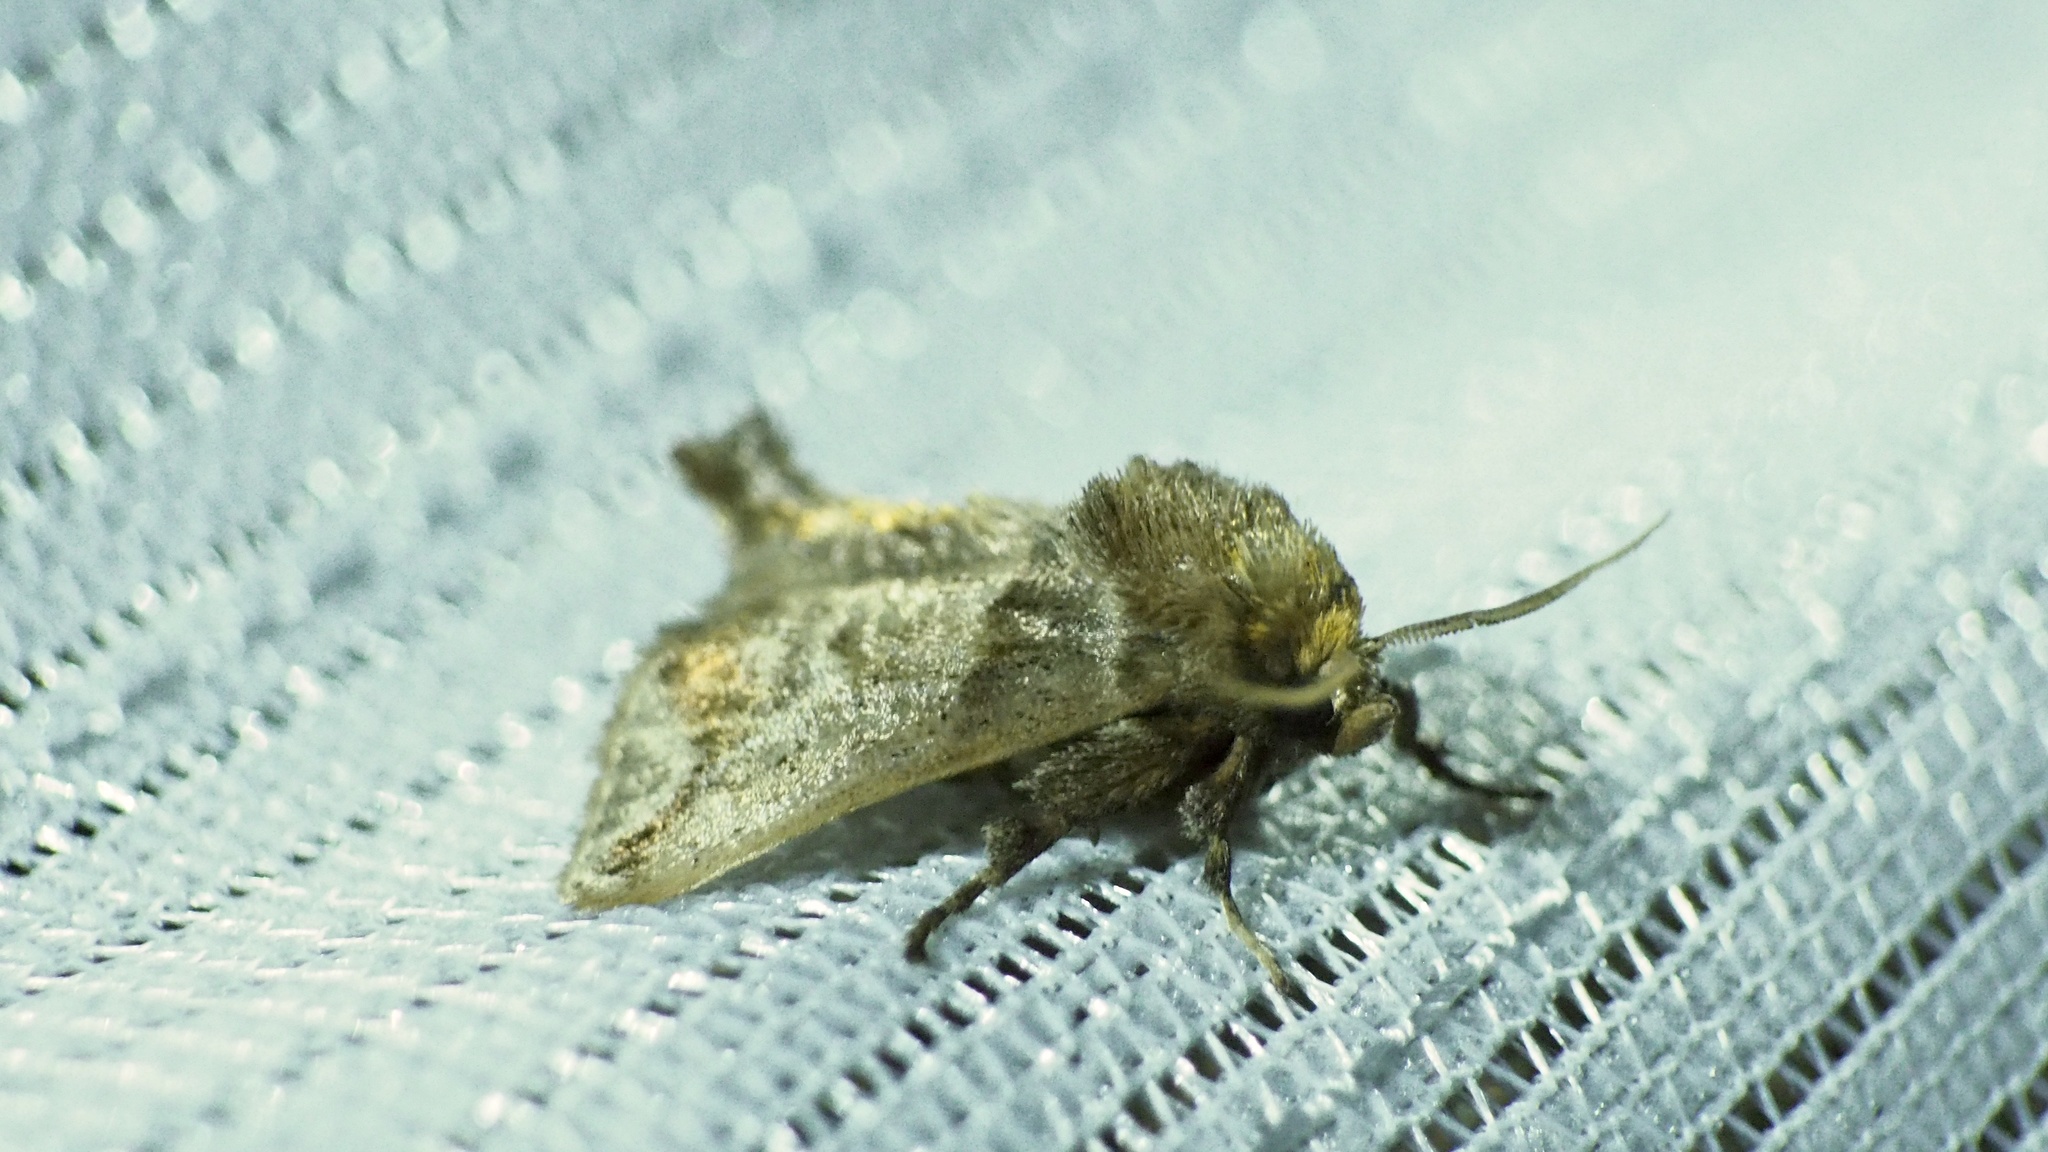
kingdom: Animalia
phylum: Arthropoda
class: Insecta
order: Lepidoptera
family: Limacodidae
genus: Austrapoda
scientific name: Austrapoda dentatus
